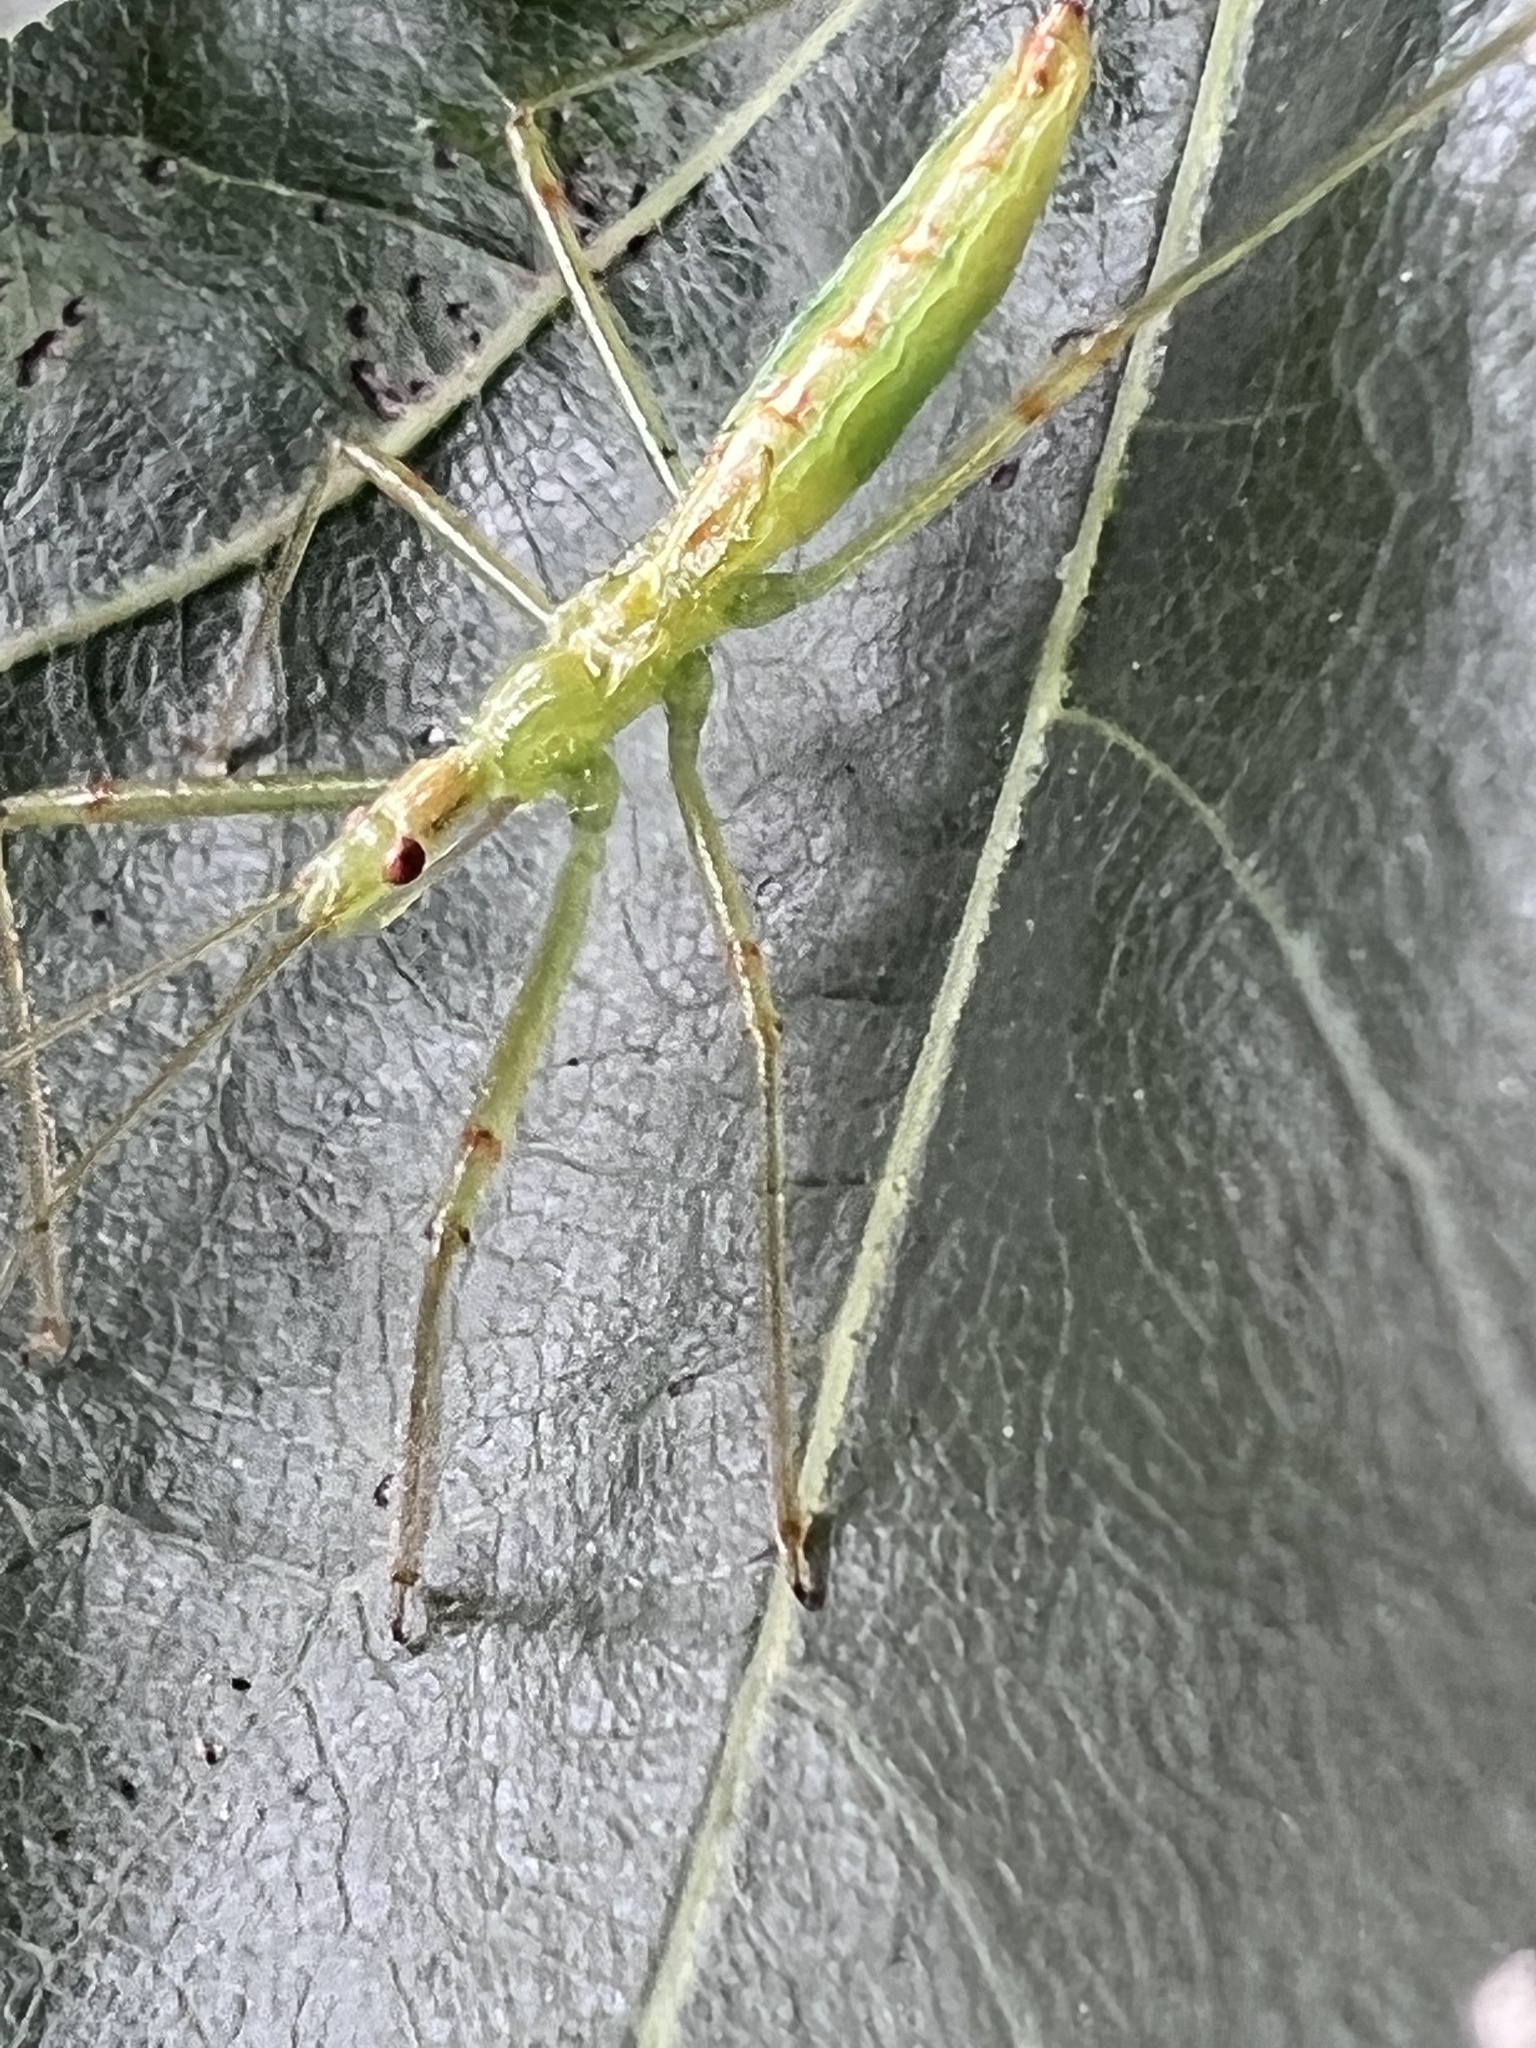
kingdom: Animalia
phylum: Arthropoda
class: Insecta
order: Hemiptera
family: Reduviidae
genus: Zelus
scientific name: Zelus luridus
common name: Pale green assassin bug
